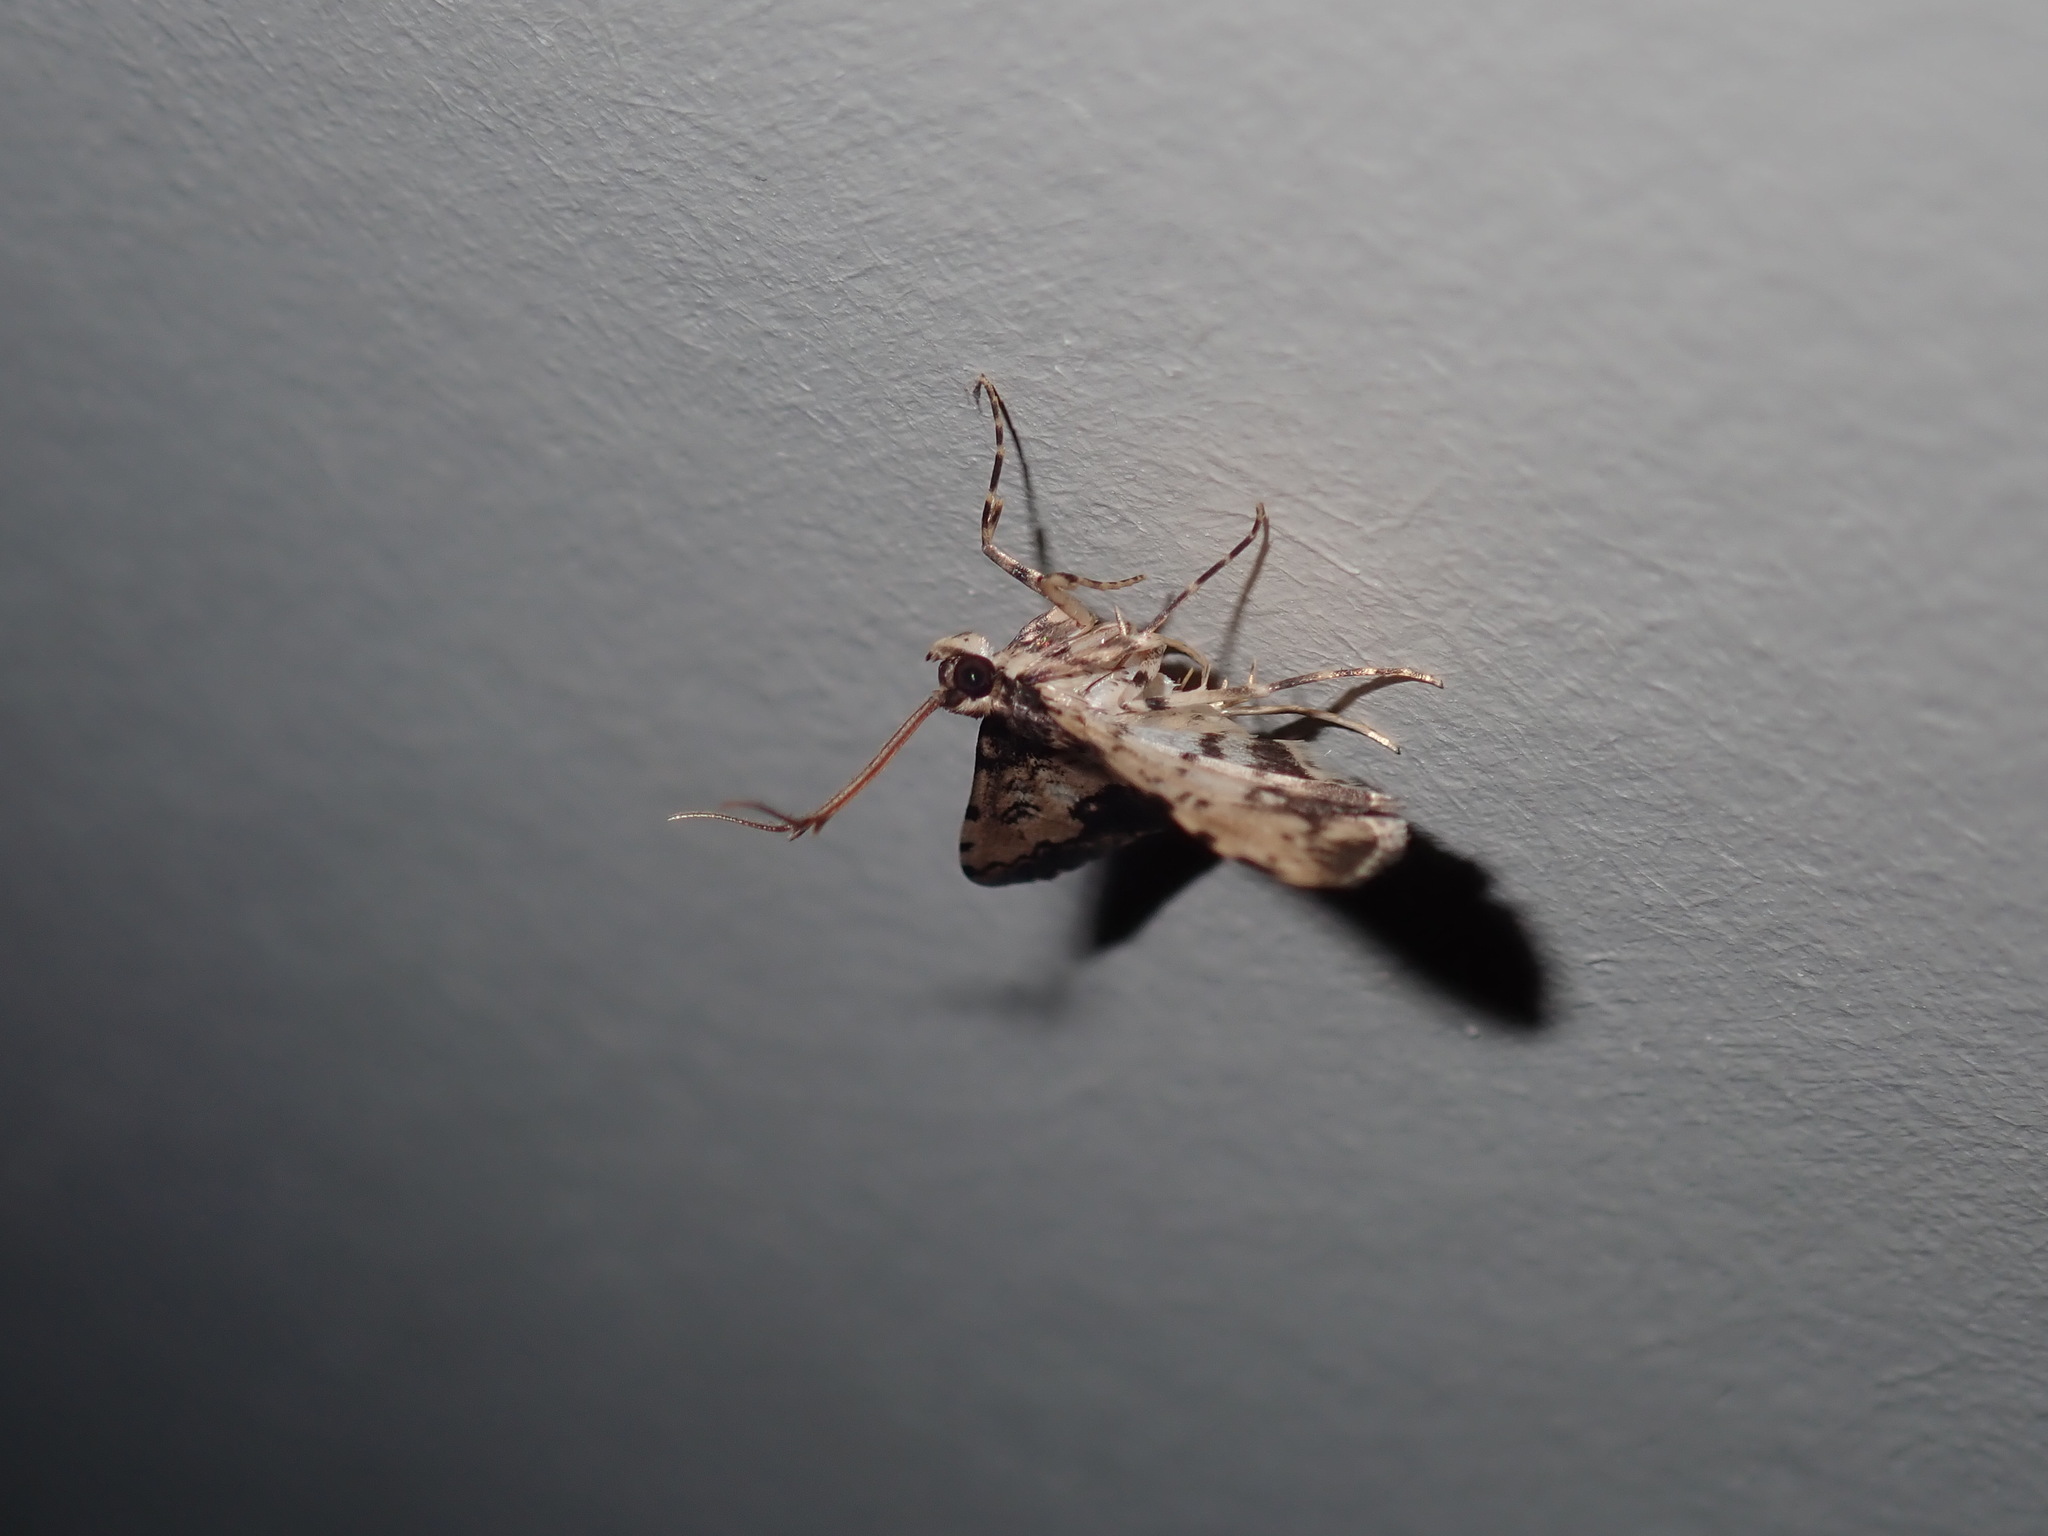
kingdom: Animalia
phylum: Arthropoda
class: Insecta
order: Lepidoptera
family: Crambidae
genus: Nacoleia
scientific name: Nacoleia amphicedalis
